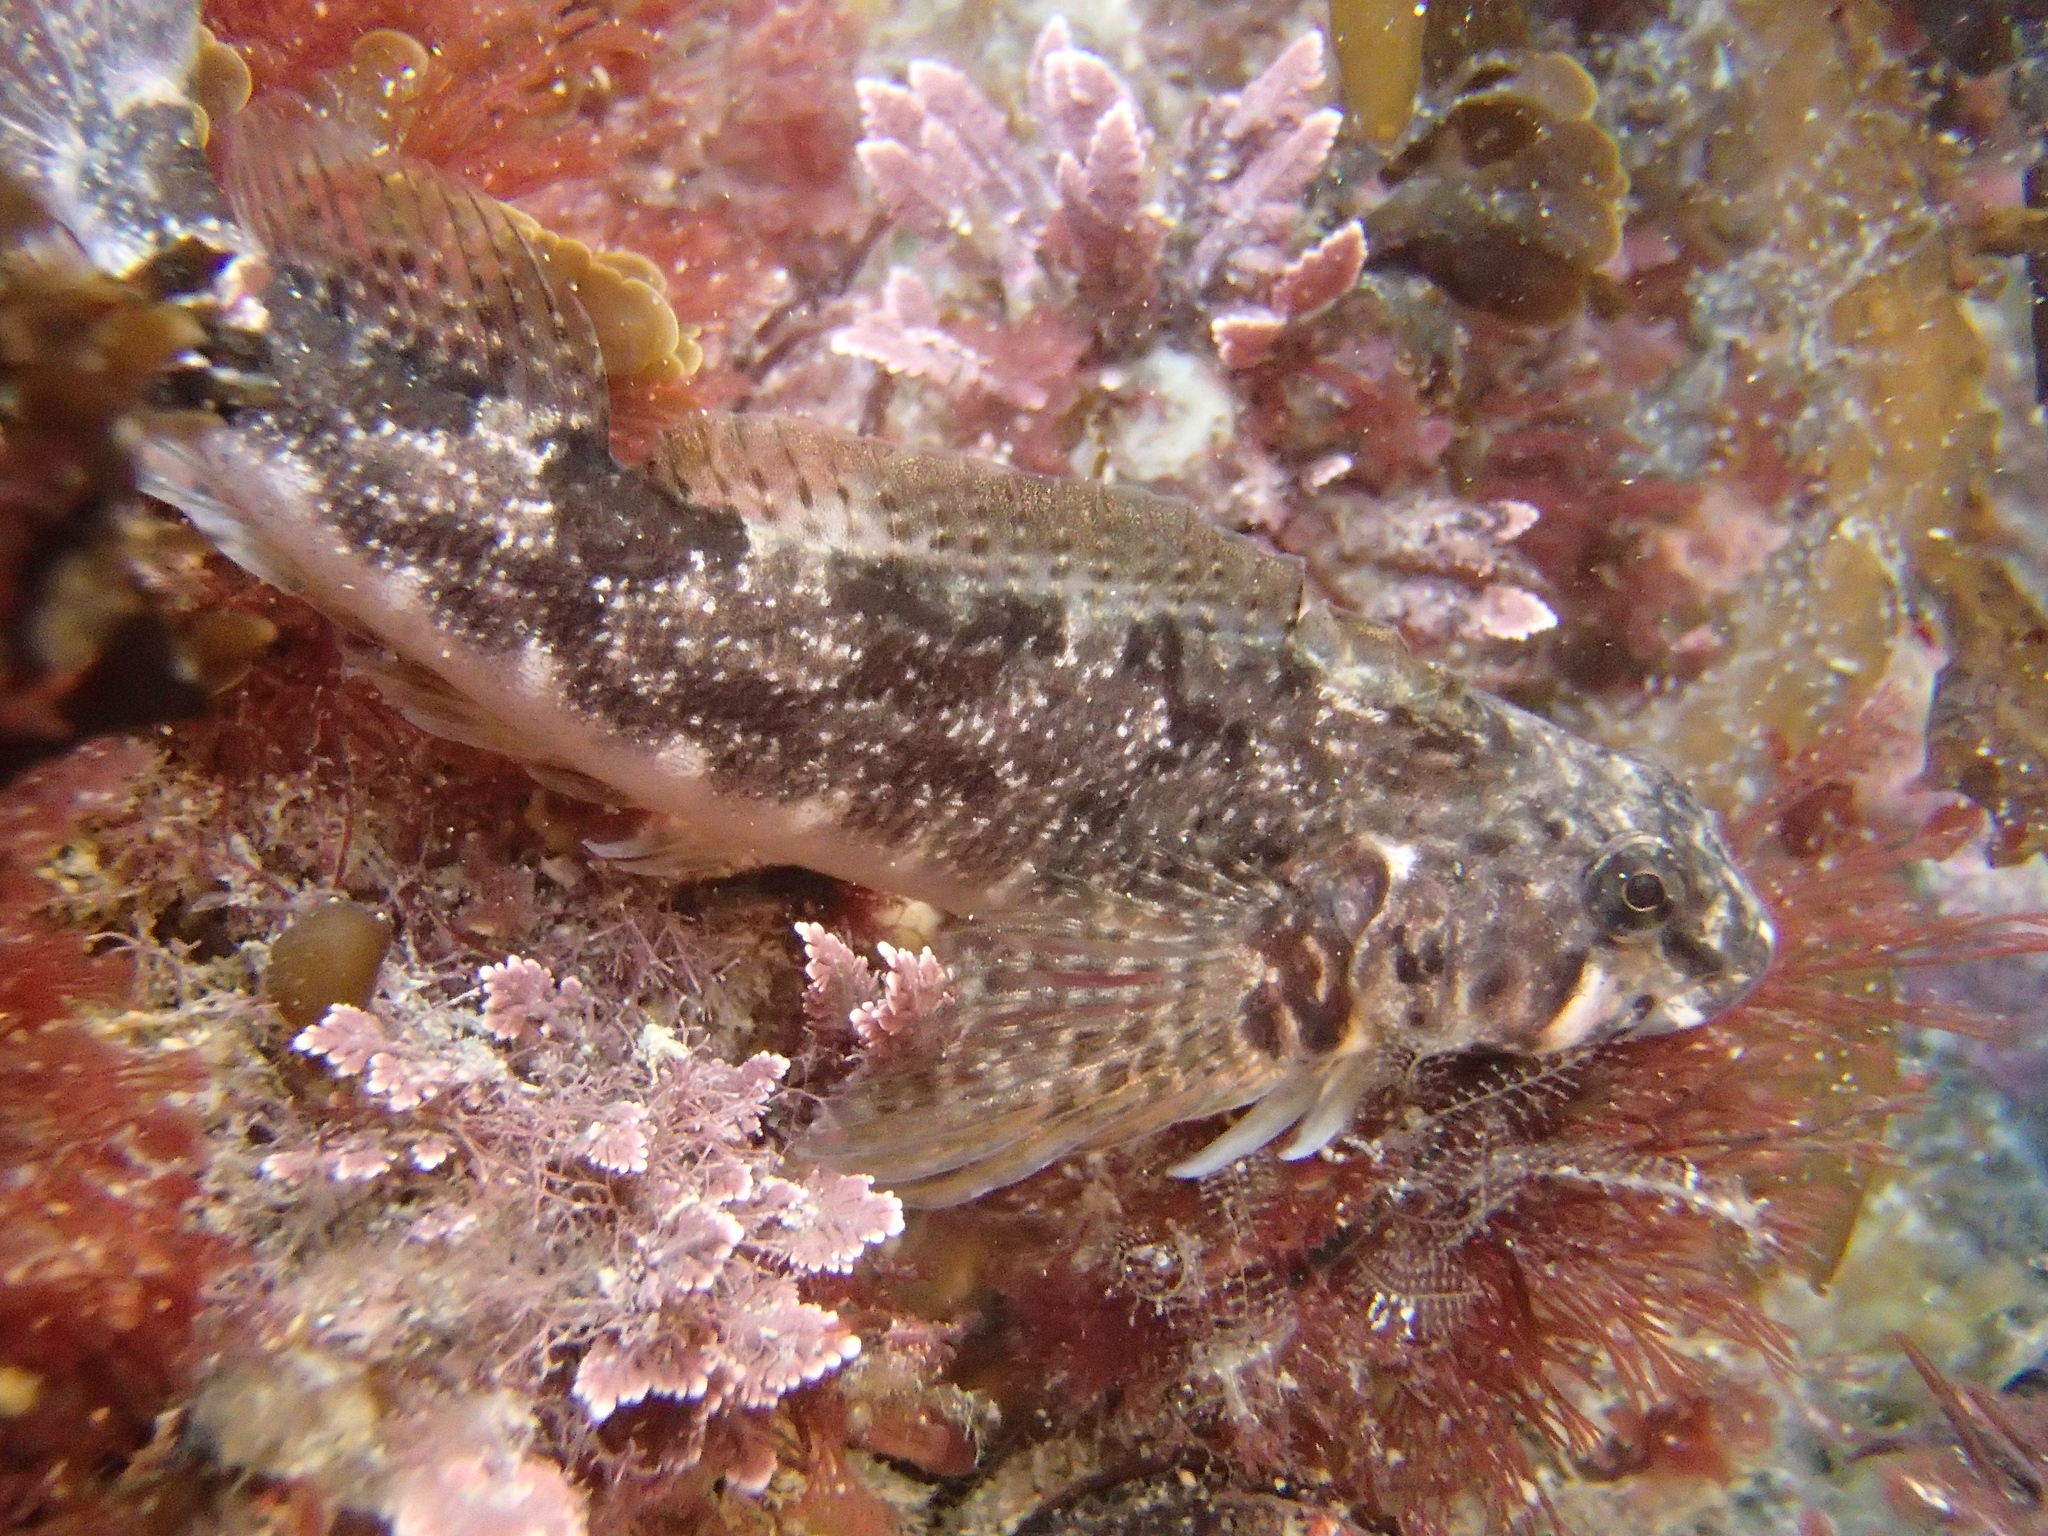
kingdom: Animalia
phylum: Chordata
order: Perciformes
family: Tripterygiidae
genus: Bellapiscis
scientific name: Bellapiscis medius
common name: Twister
